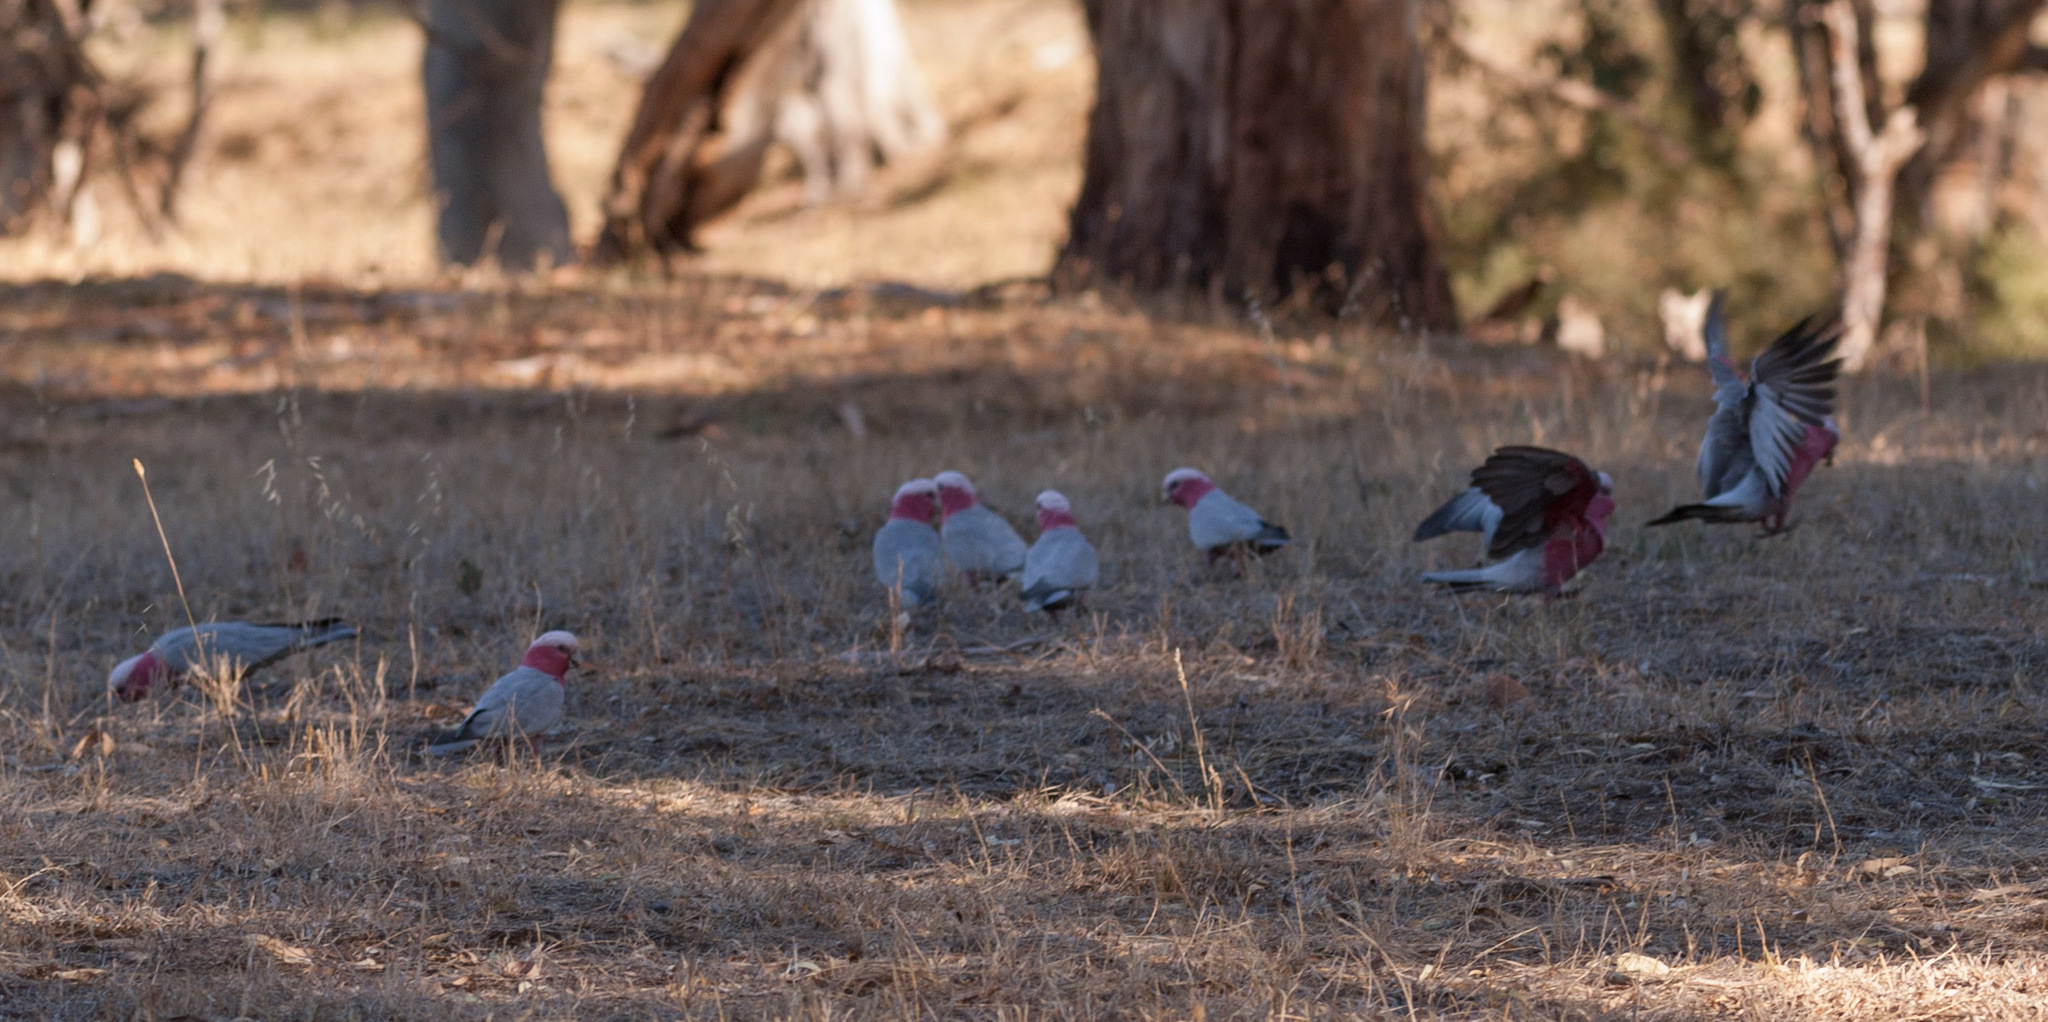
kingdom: Animalia
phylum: Chordata
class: Aves
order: Psittaciformes
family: Psittacidae
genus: Eolophus
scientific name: Eolophus roseicapilla
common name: Galah
